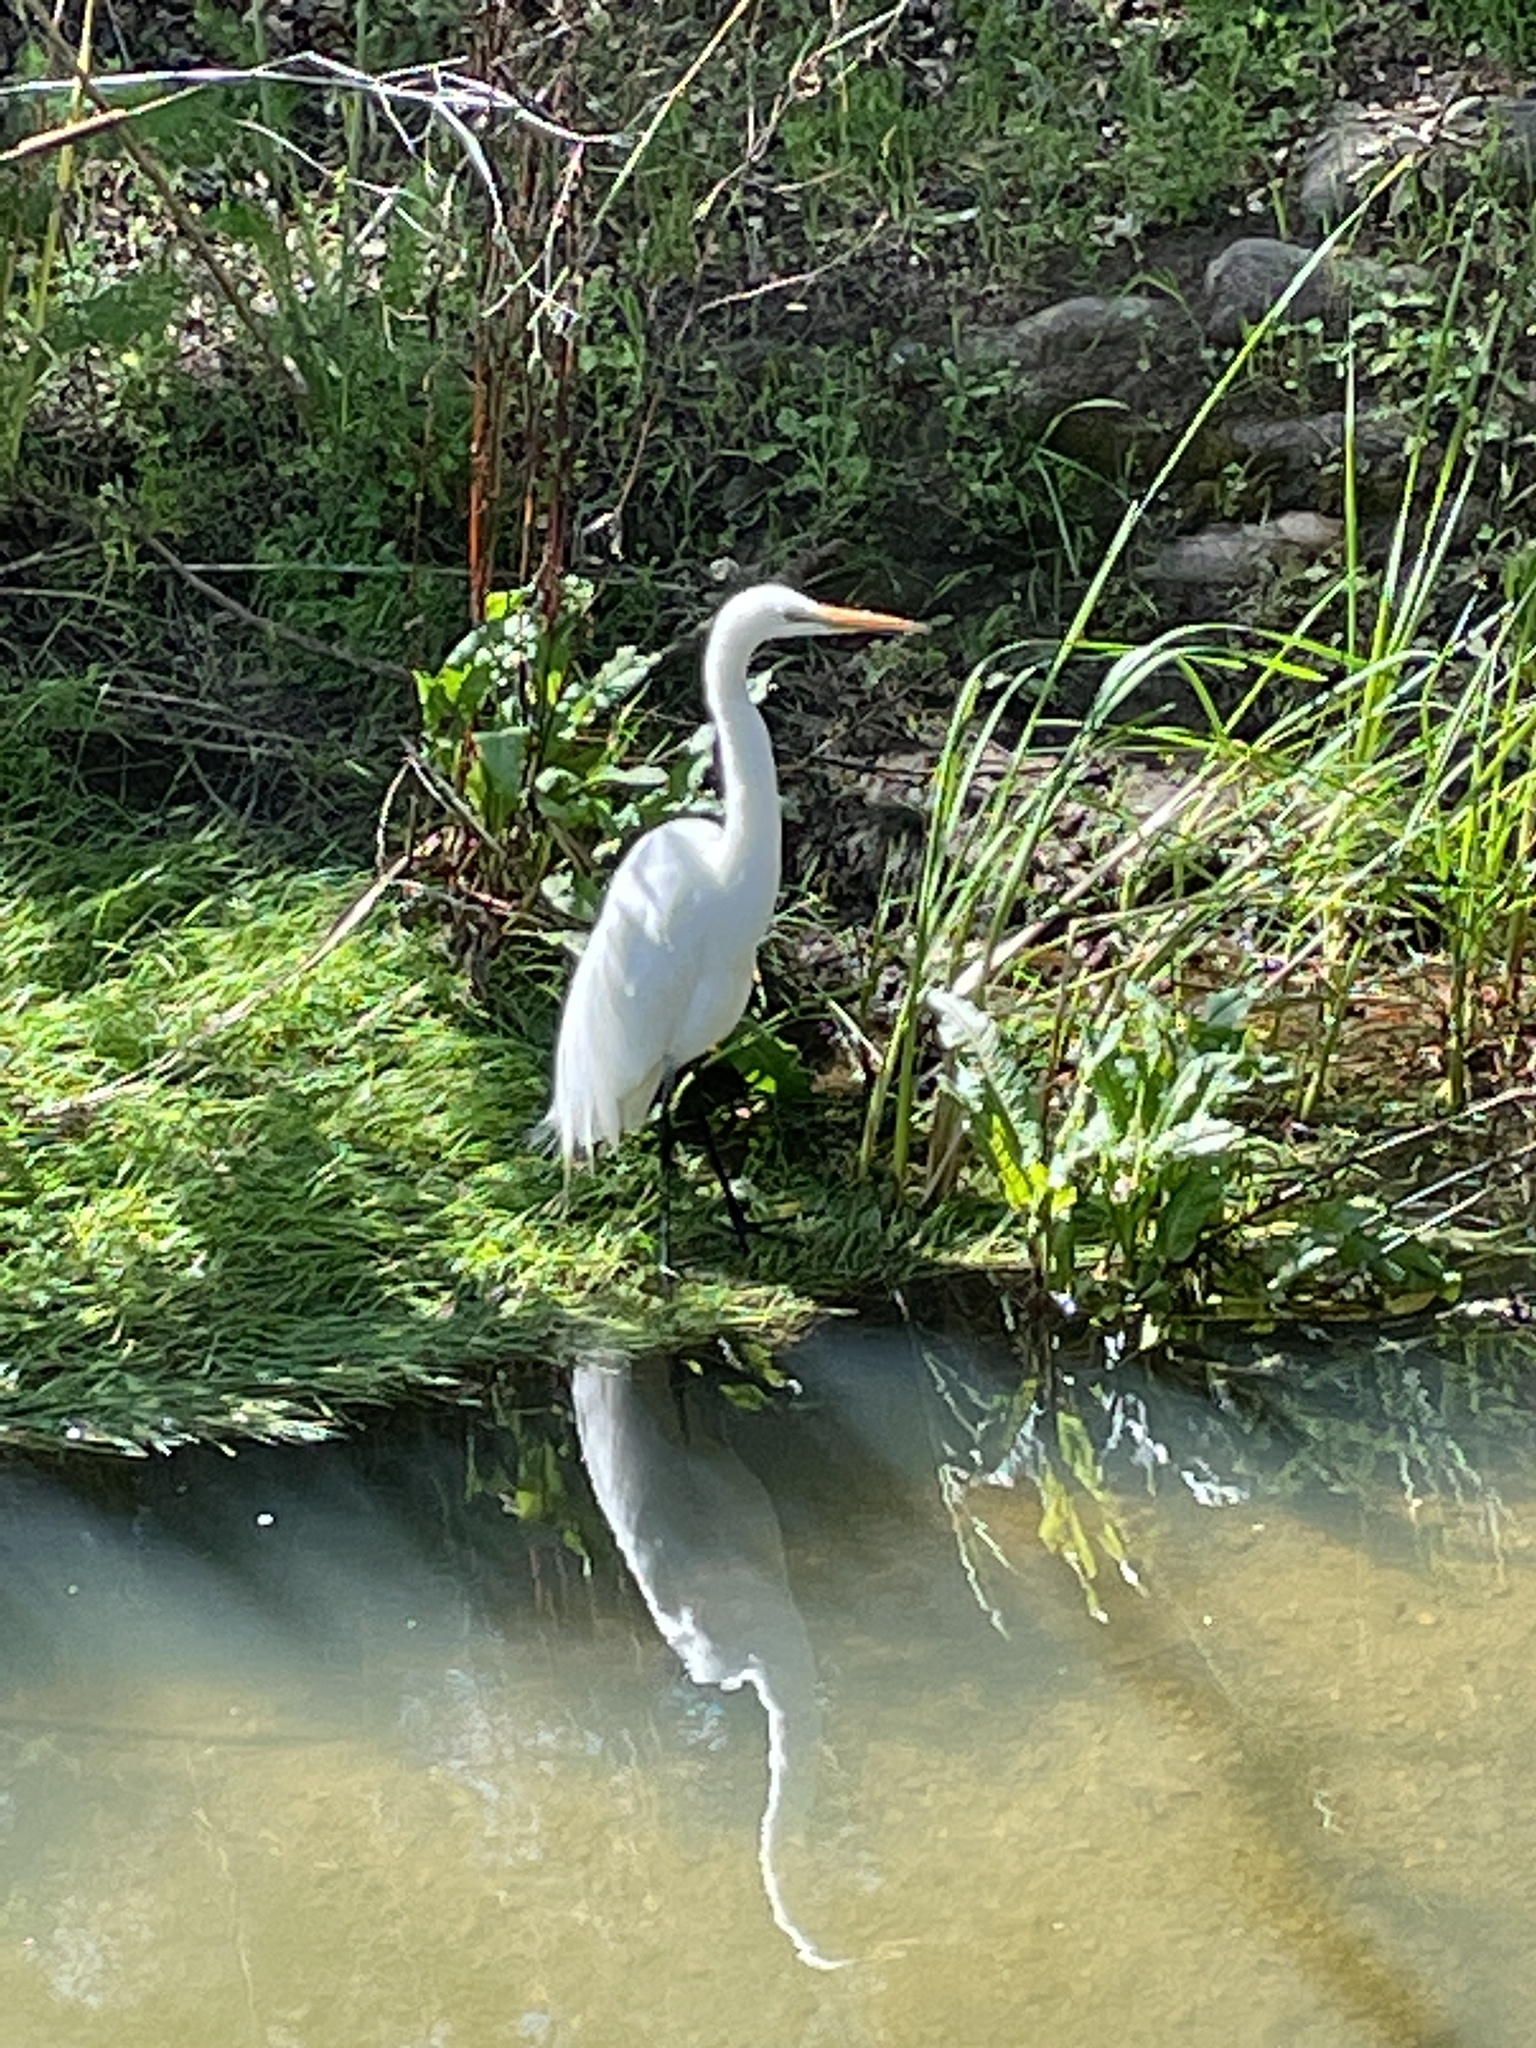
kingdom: Animalia
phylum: Chordata
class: Aves
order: Pelecaniformes
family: Ardeidae
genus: Ardea
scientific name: Ardea alba
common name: Great egret
